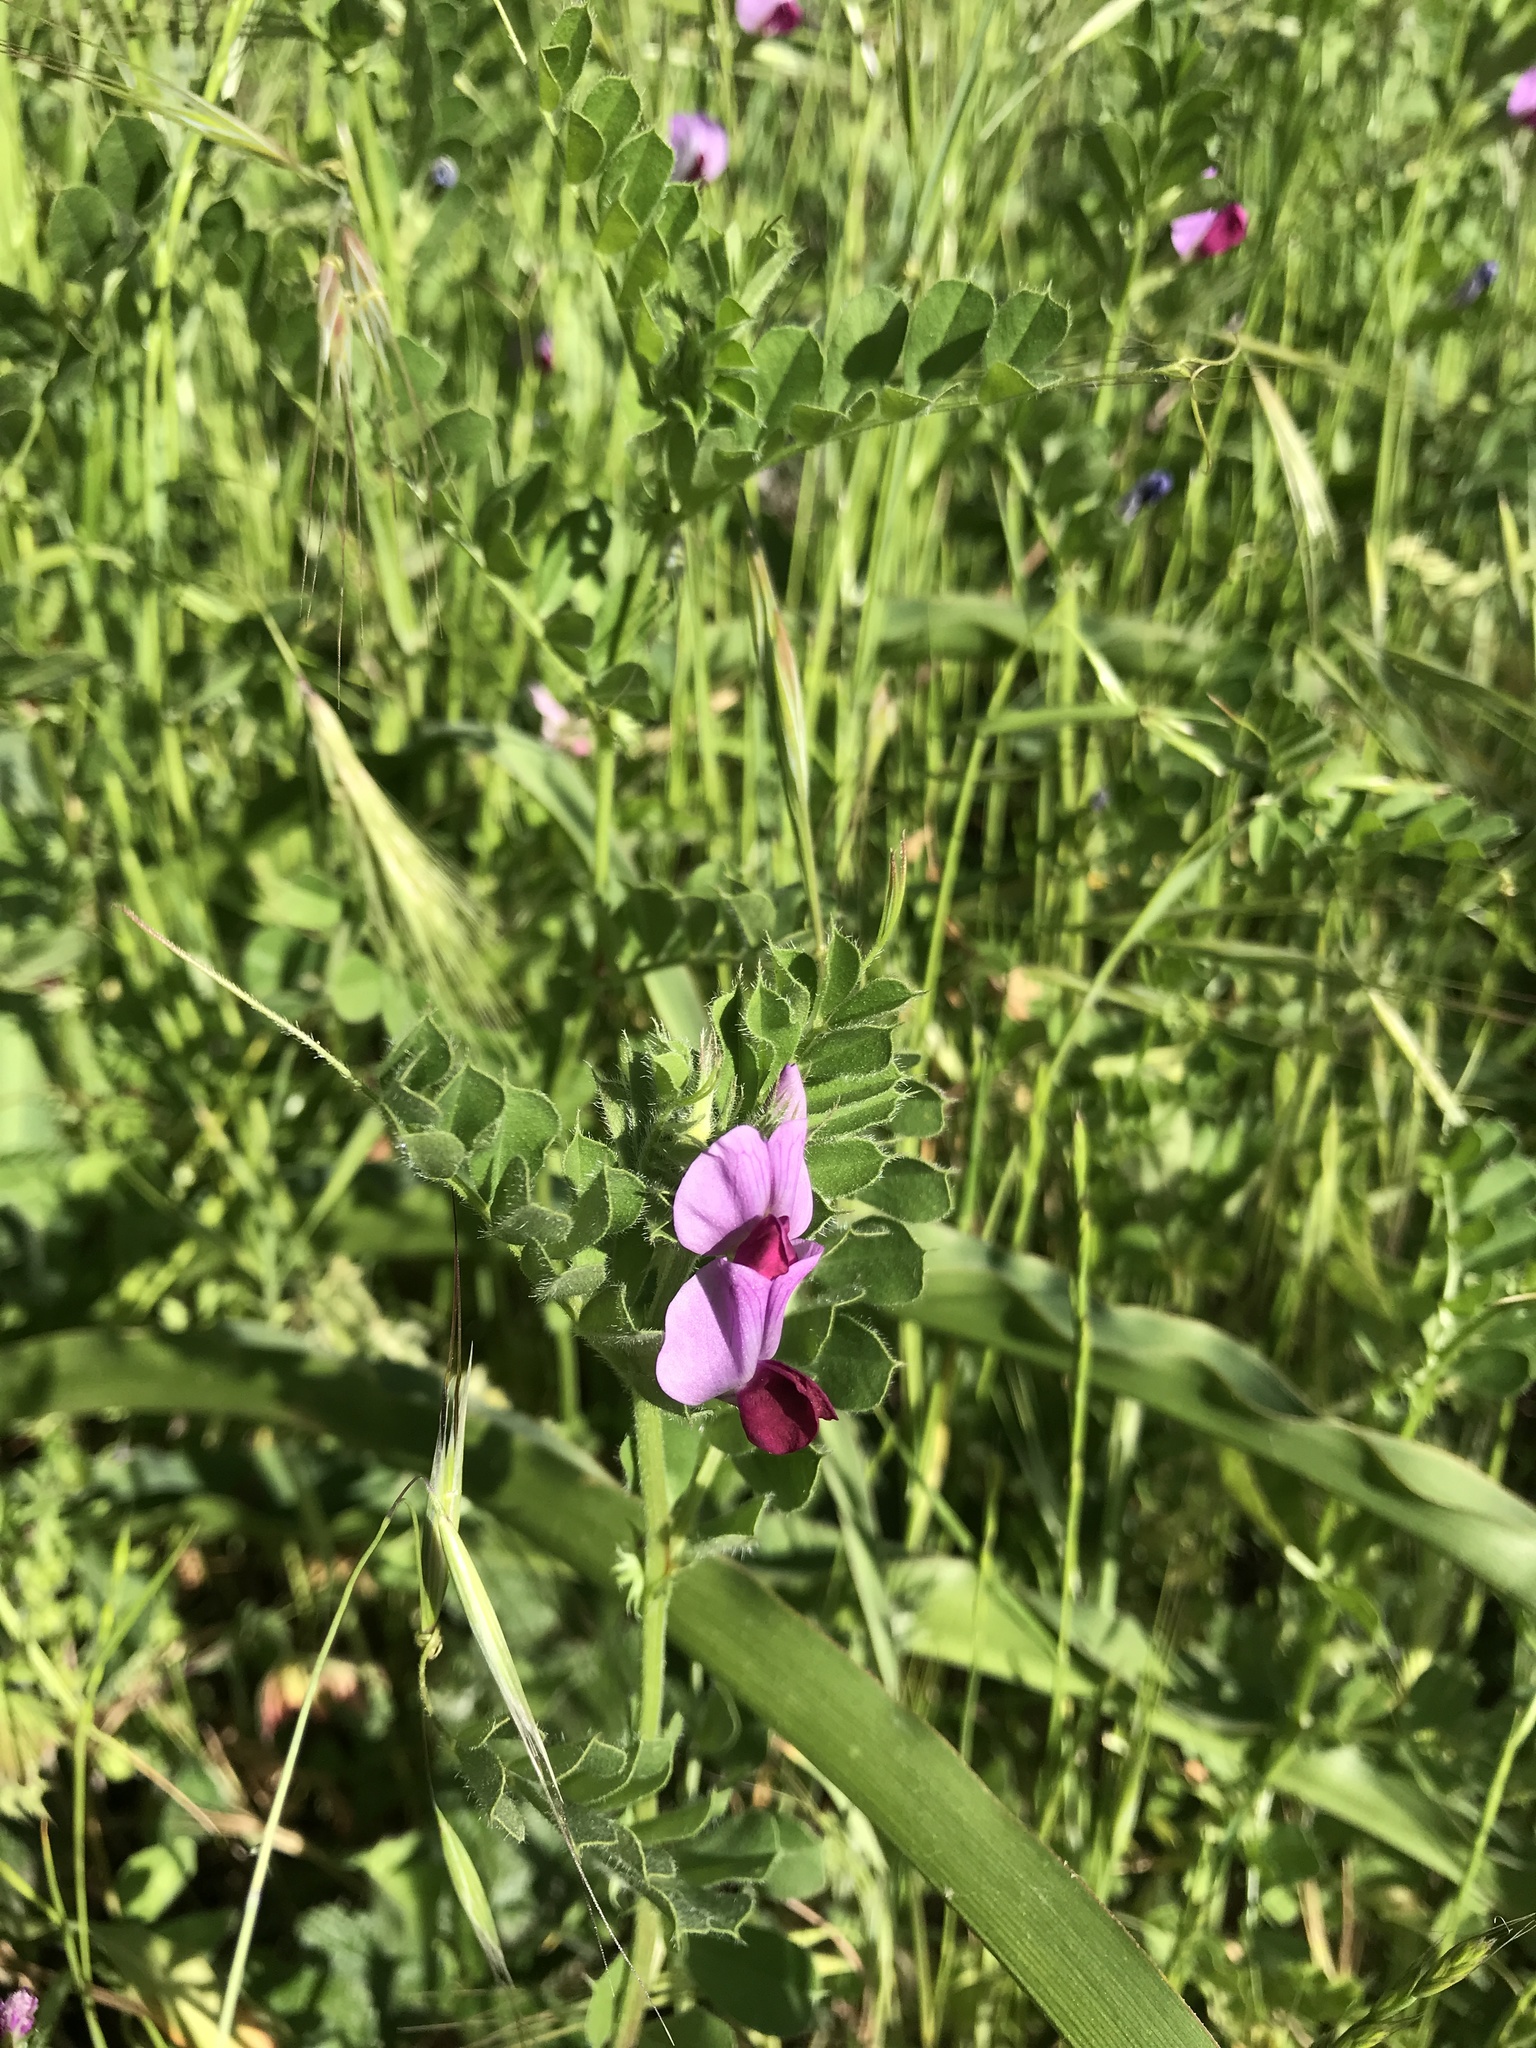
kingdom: Plantae
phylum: Tracheophyta
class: Magnoliopsida
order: Fabales
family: Fabaceae
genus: Vicia
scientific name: Vicia sativa
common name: Garden vetch
